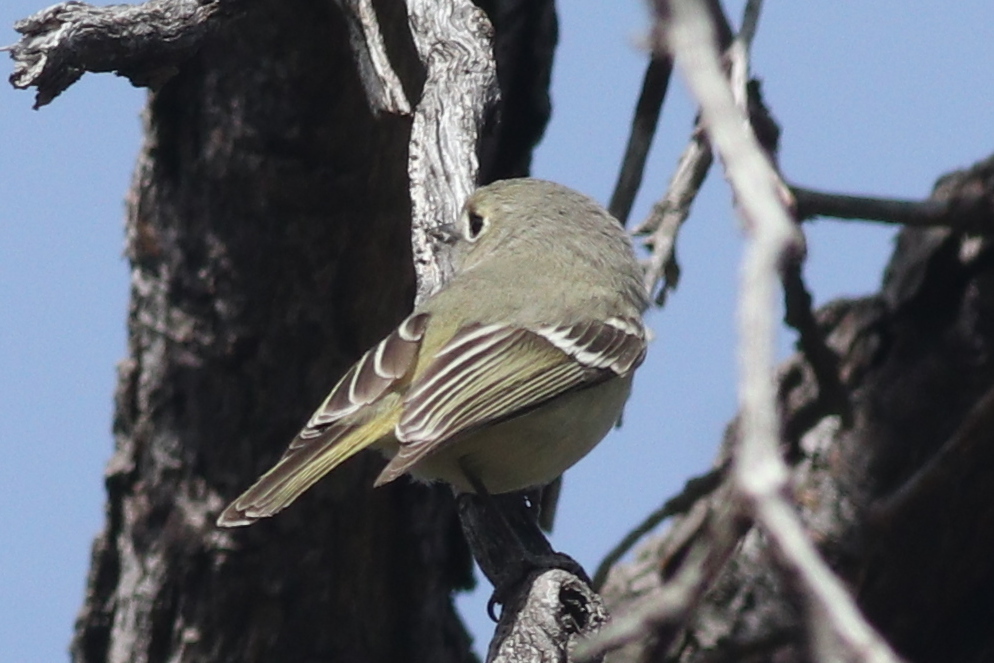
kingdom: Animalia
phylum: Chordata
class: Aves
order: Passeriformes
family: Vireonidae
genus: Vireo
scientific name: Vireo huttoni
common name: Hutton's vireo
